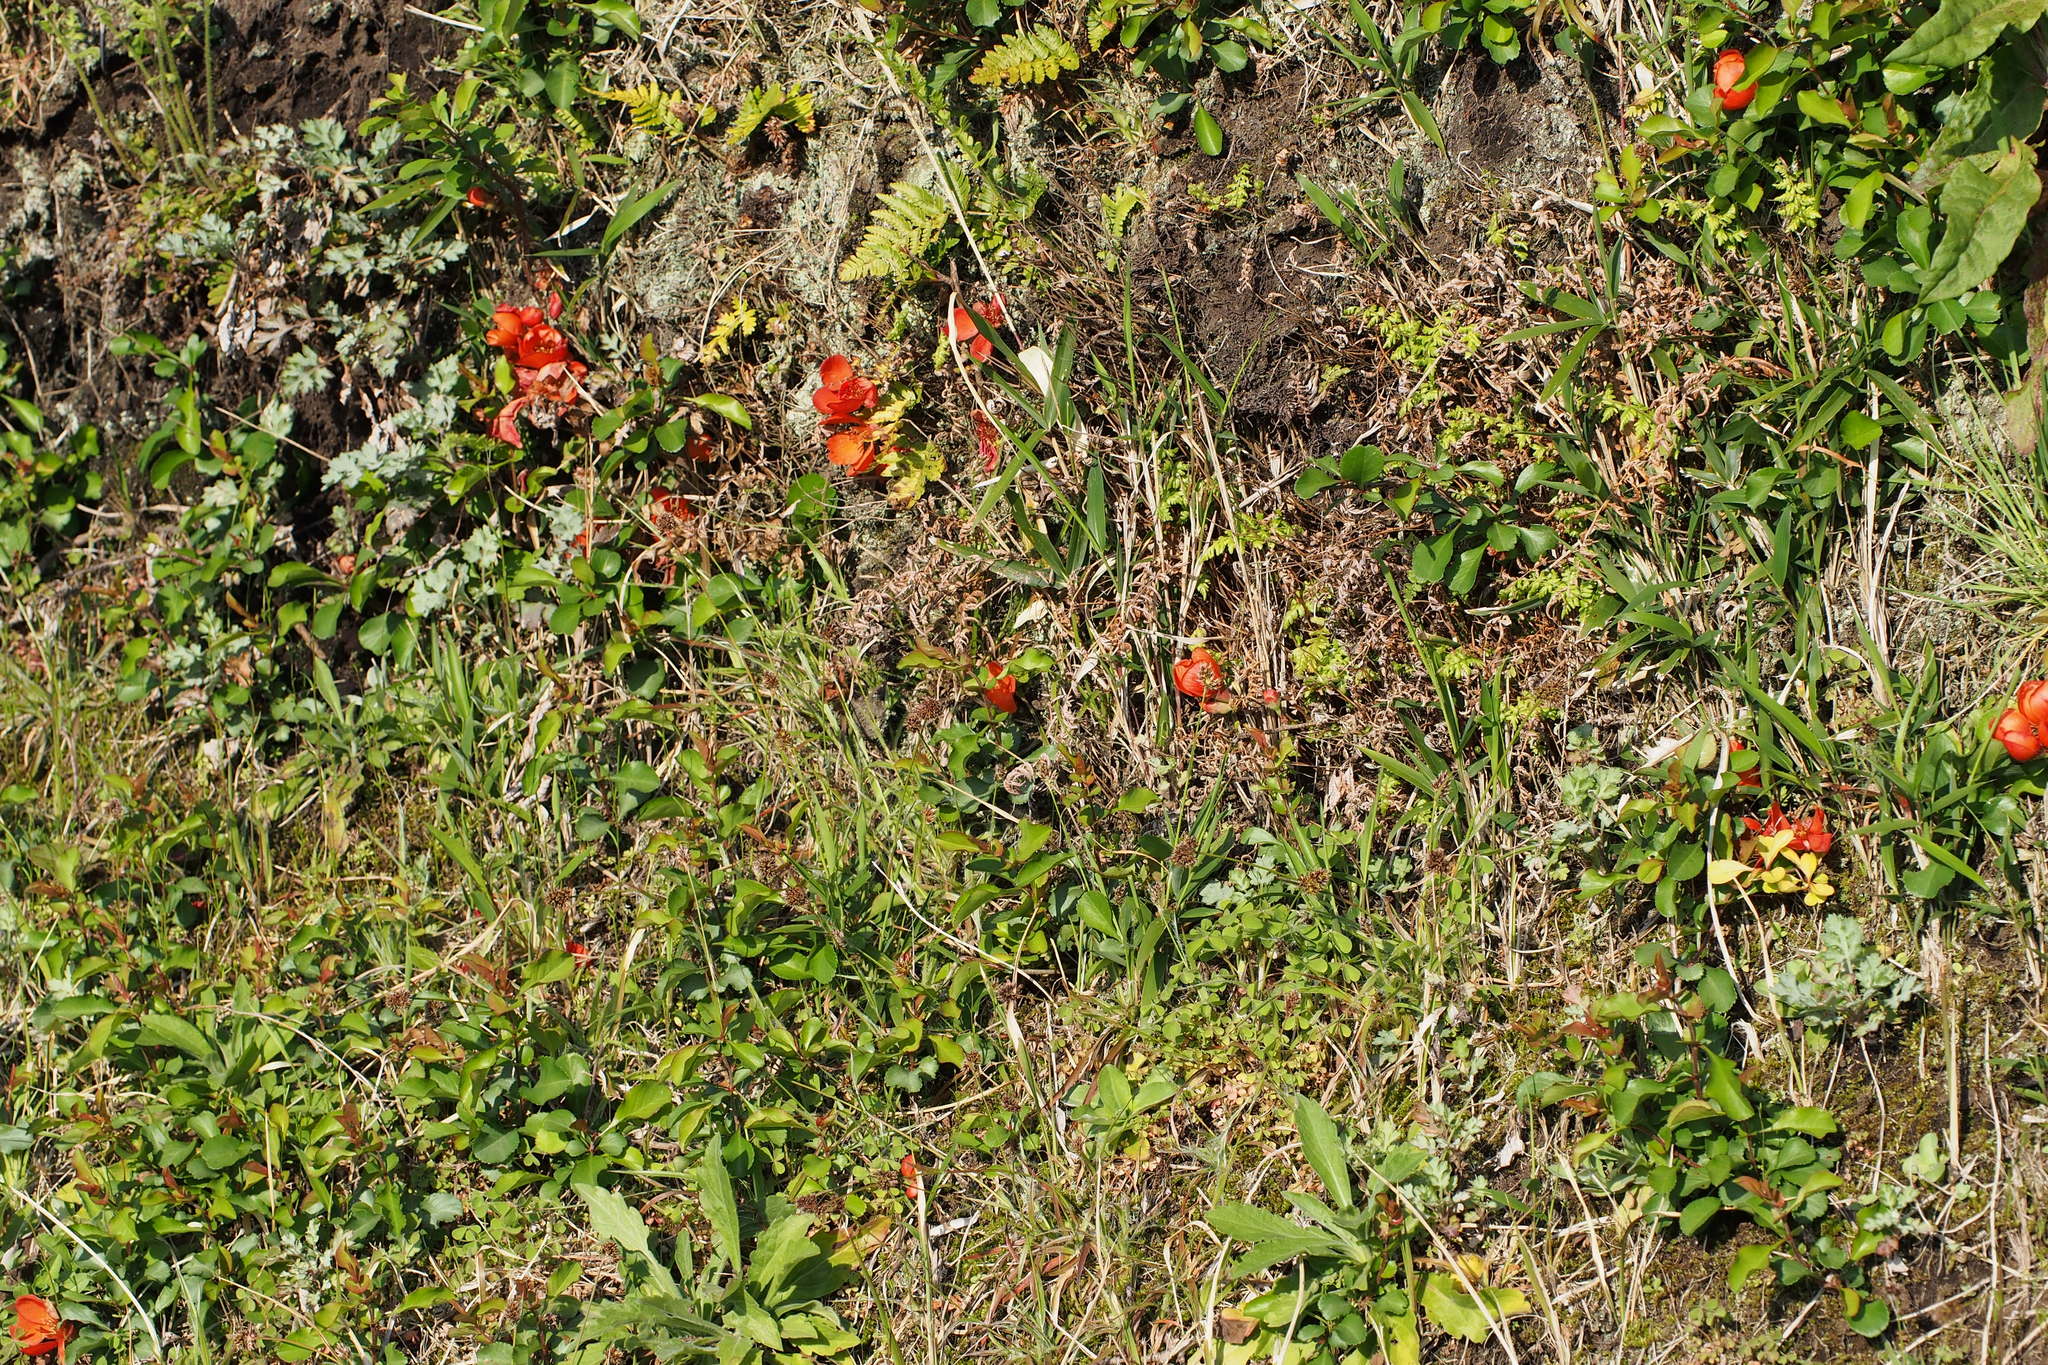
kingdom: Plantae
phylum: Tracheophyta
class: Magnoliopsida
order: Rosales
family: Rosaceae
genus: Chaenomeles
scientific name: Chaenomeles japonica
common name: Japanese quince
